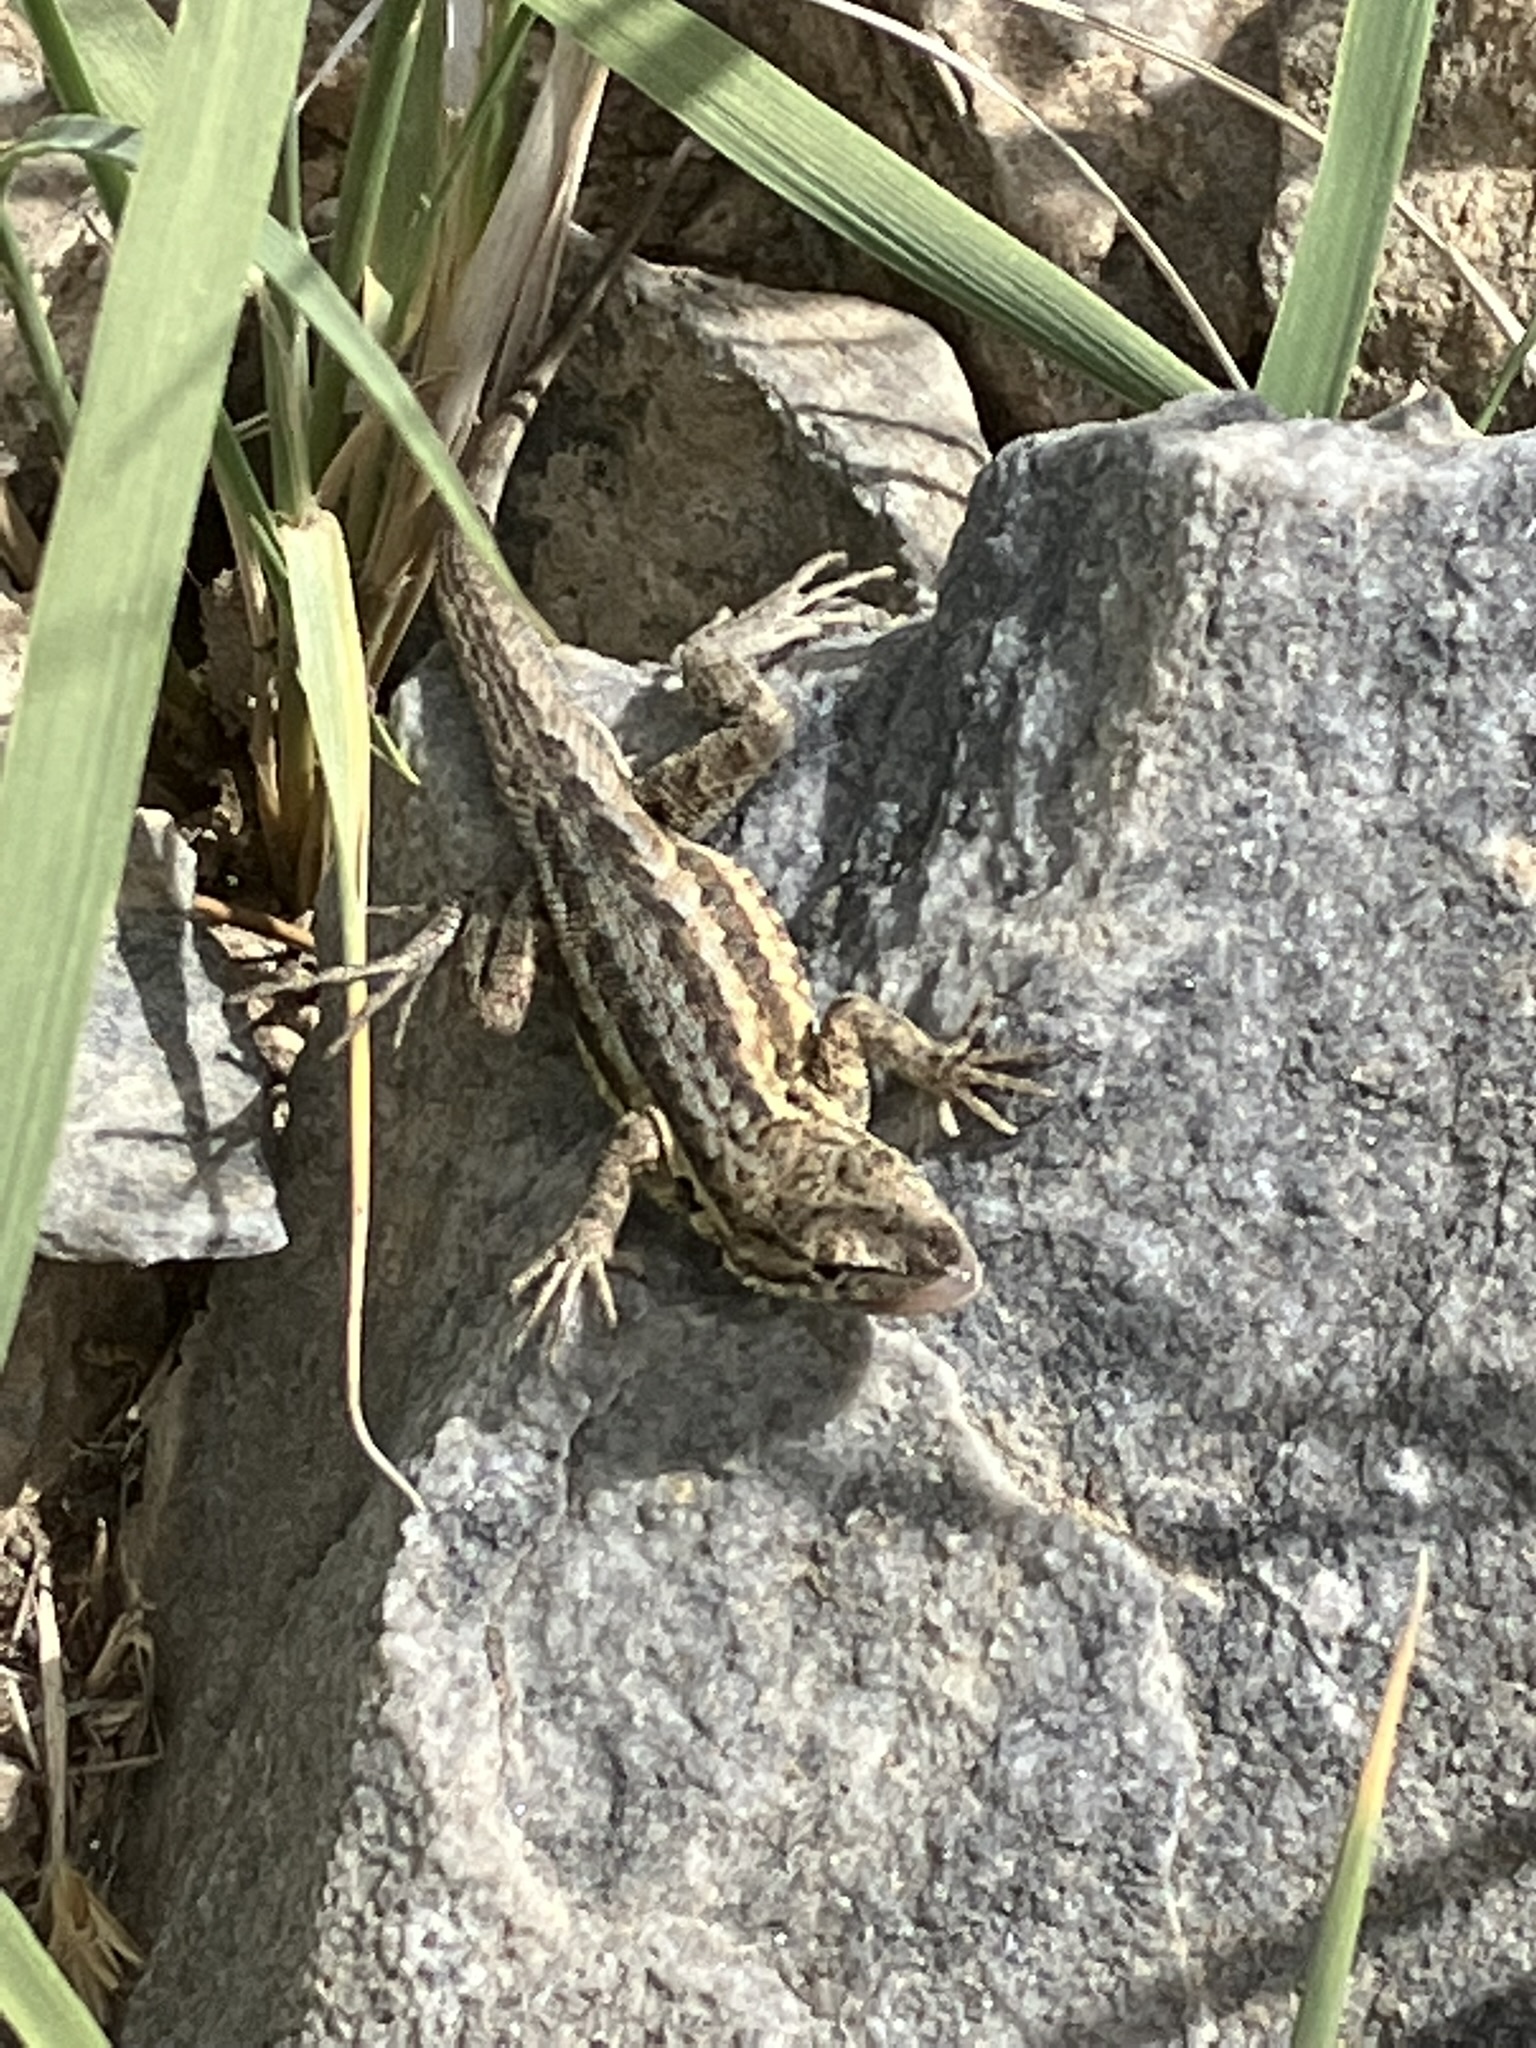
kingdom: Animalia
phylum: Chordata
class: Squamata
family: Phrynosomatidae
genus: Uta
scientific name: Uta stansburiana
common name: Side-blotched lizard
